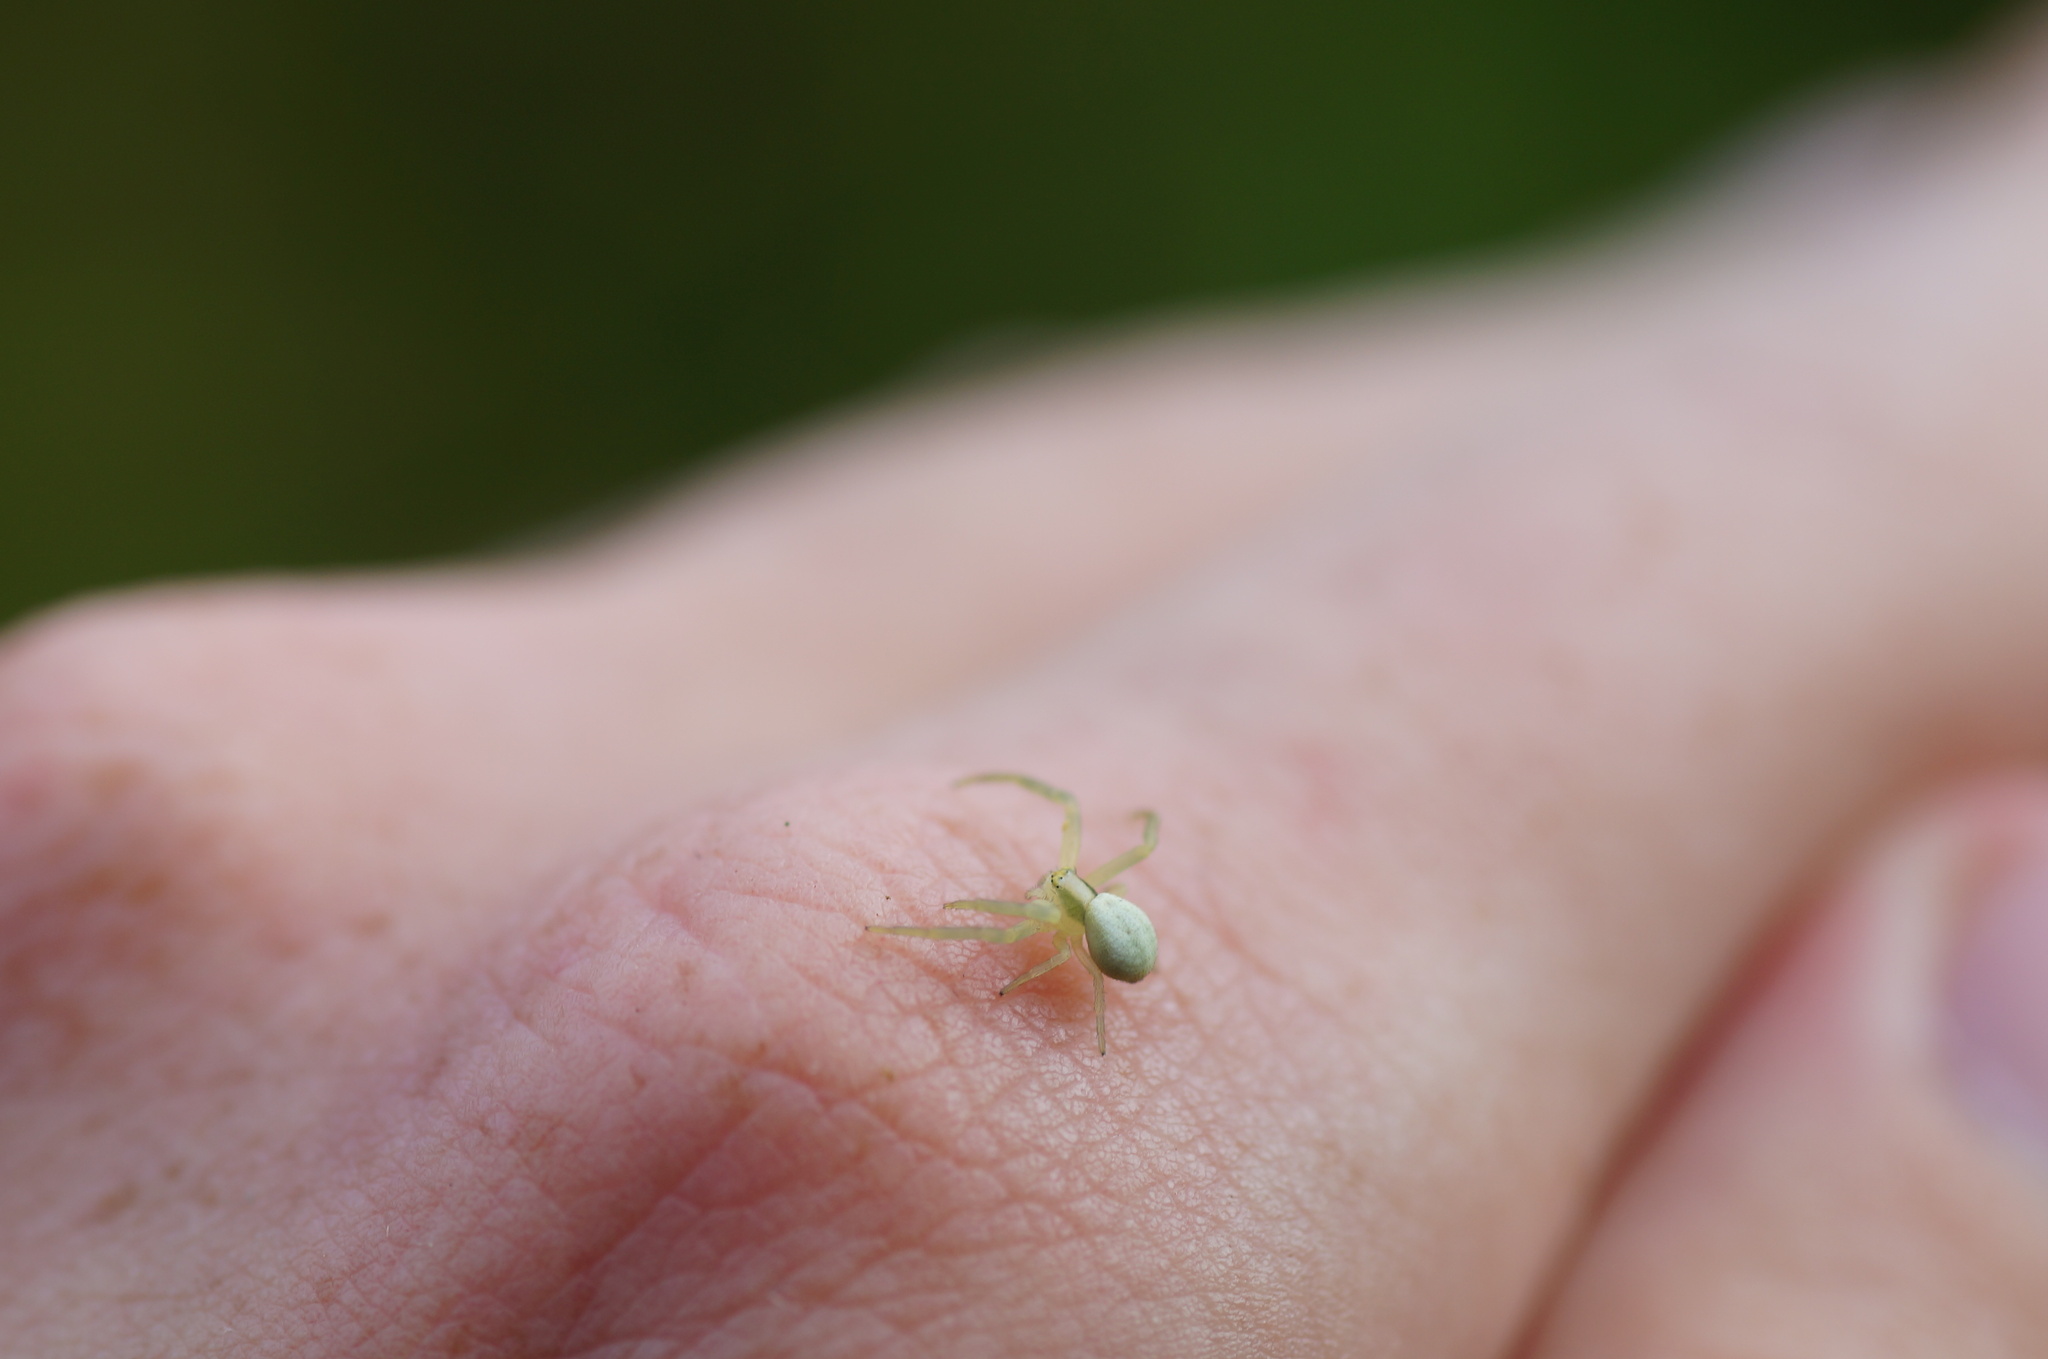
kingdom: Animalia
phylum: Arthropoda
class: Arachnida
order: Araneae
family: Thomisidae
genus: Misumena
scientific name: Misumena vatia
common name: Goldenrod crab spider
